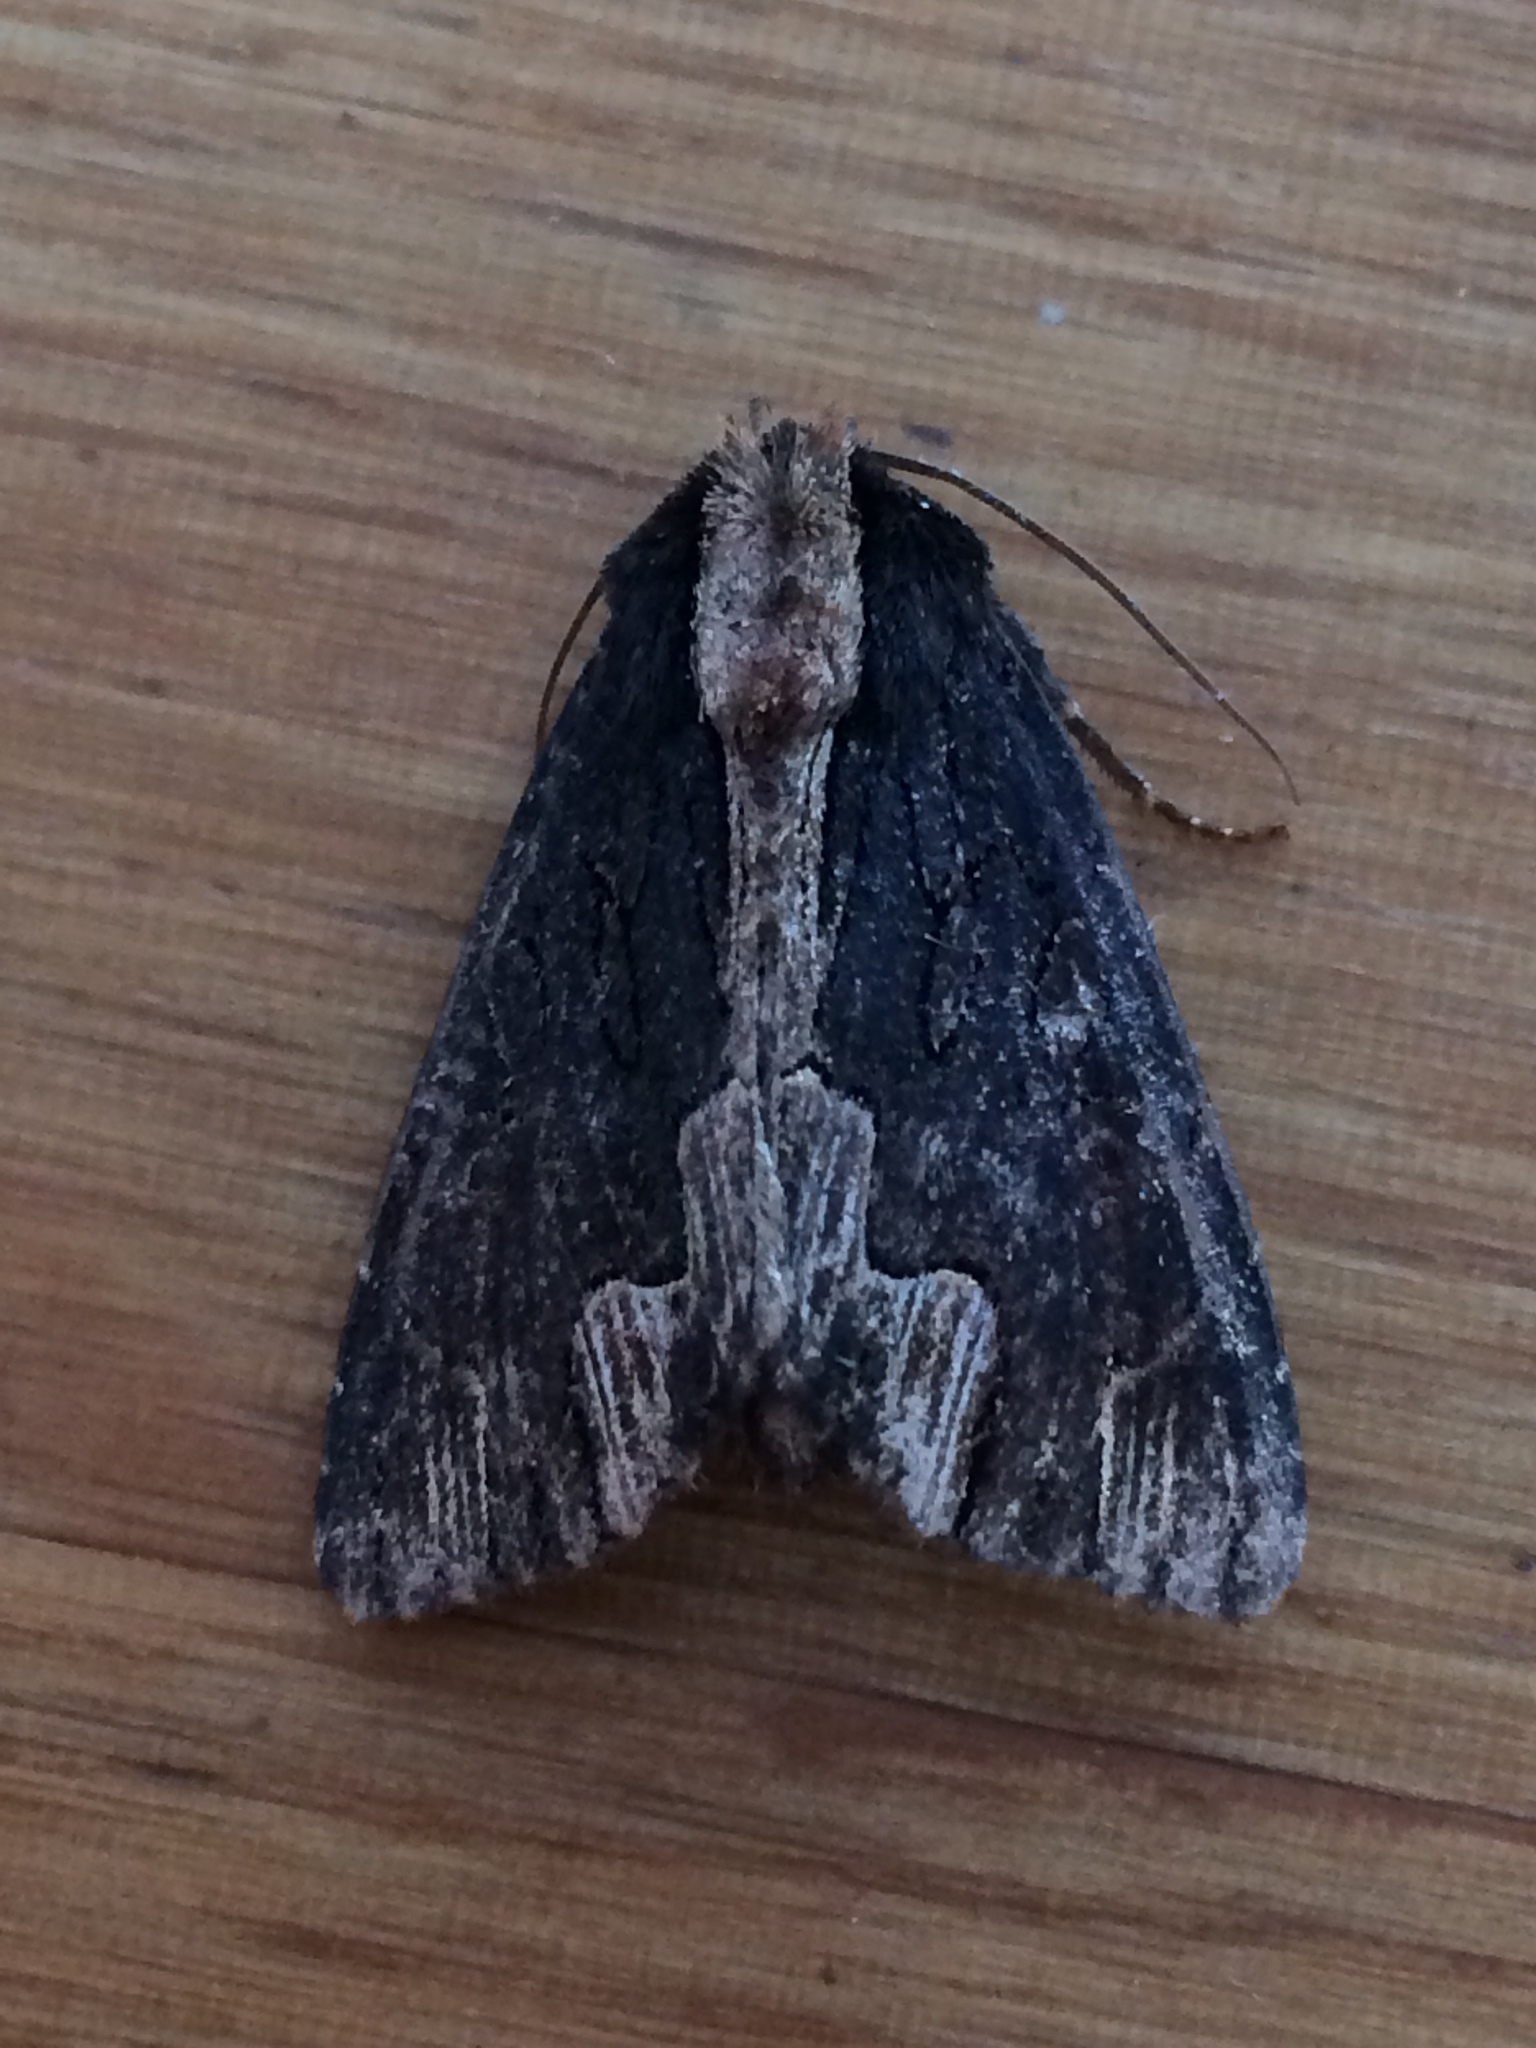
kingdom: Animalia
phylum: Arthropoda
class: Insecta
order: Lepidoptera
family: Noctuidae
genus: Dypterygia
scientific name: Dypterygia scabriuscula
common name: Bird's wing
